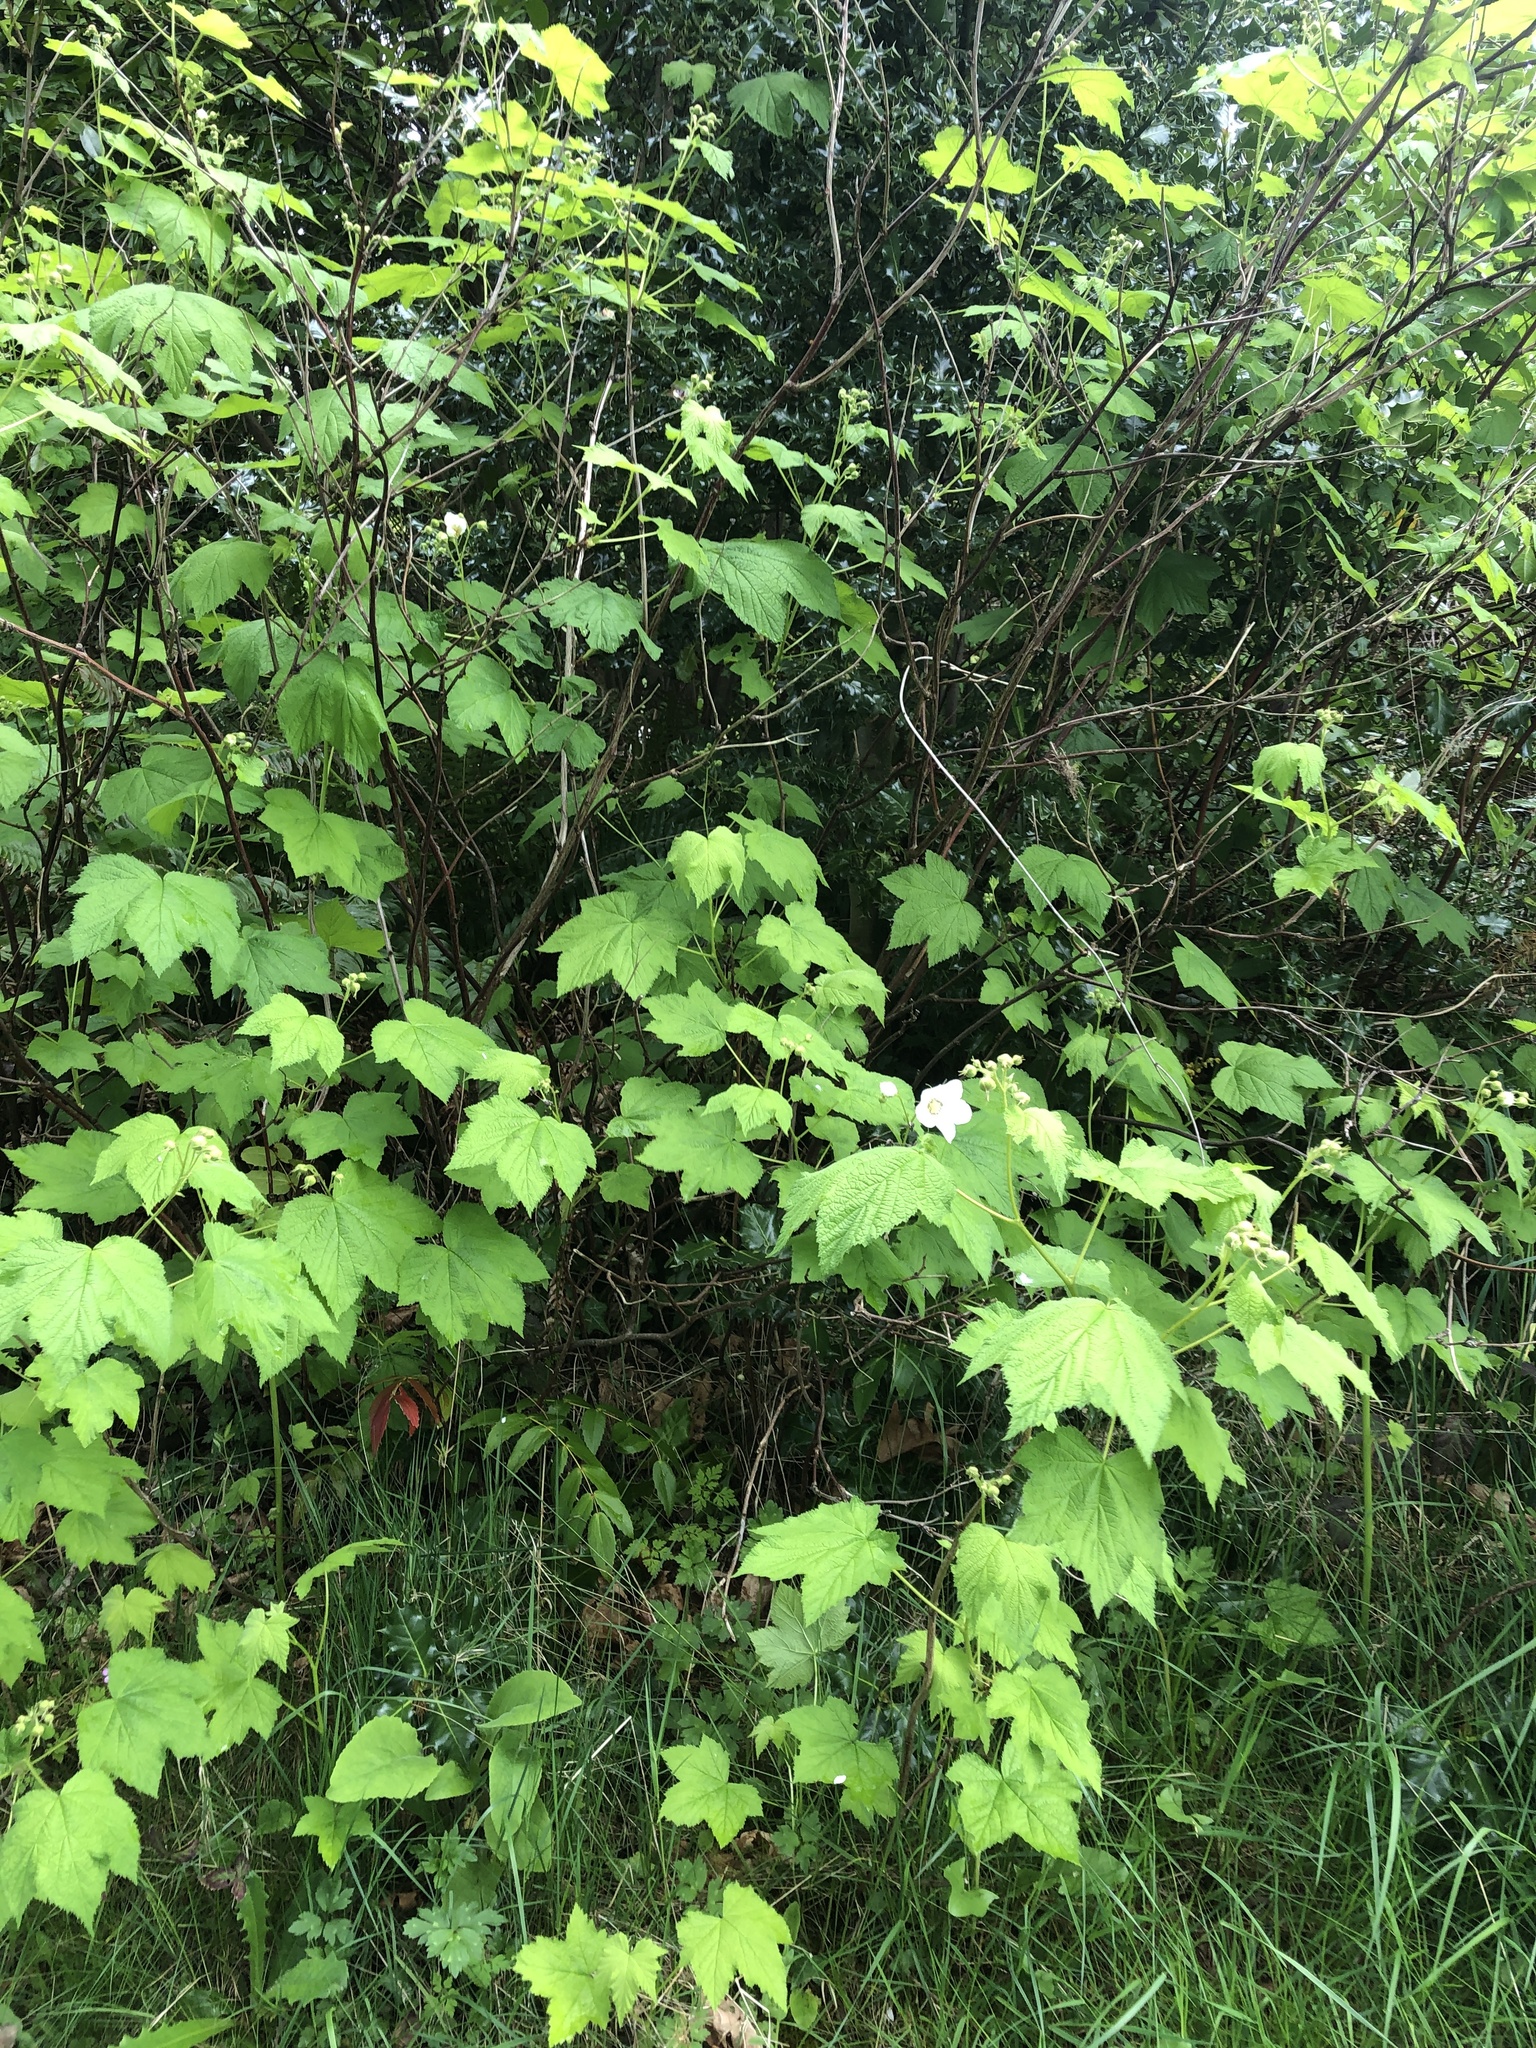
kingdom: Plantae
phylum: Tracheophyta
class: Magnoliopsida
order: Rosales
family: Rosaceae
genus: Rubus
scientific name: Rubus parviflorus
